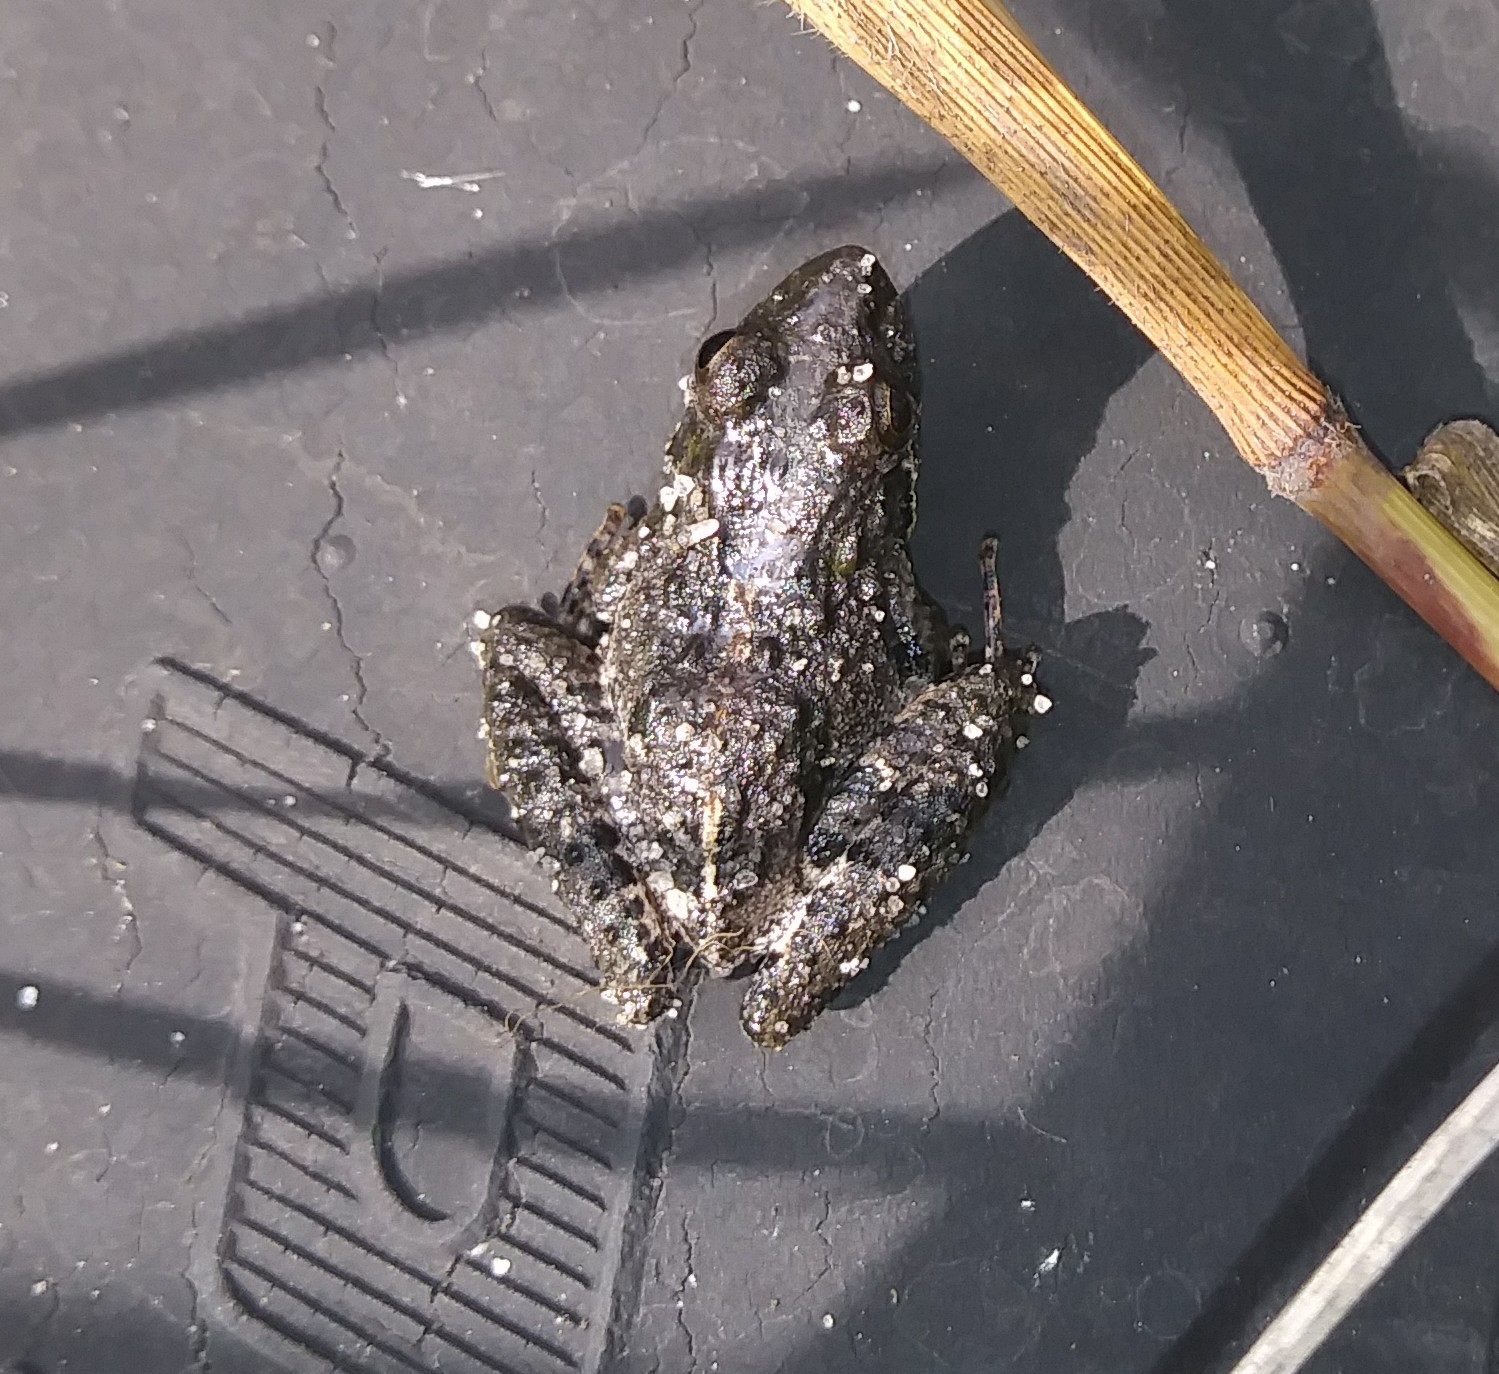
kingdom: Animalia
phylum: Chordata
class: Amphibia
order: Anura
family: Hylidae
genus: Acris
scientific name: Acris gryllus
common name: Southern cricket frog
